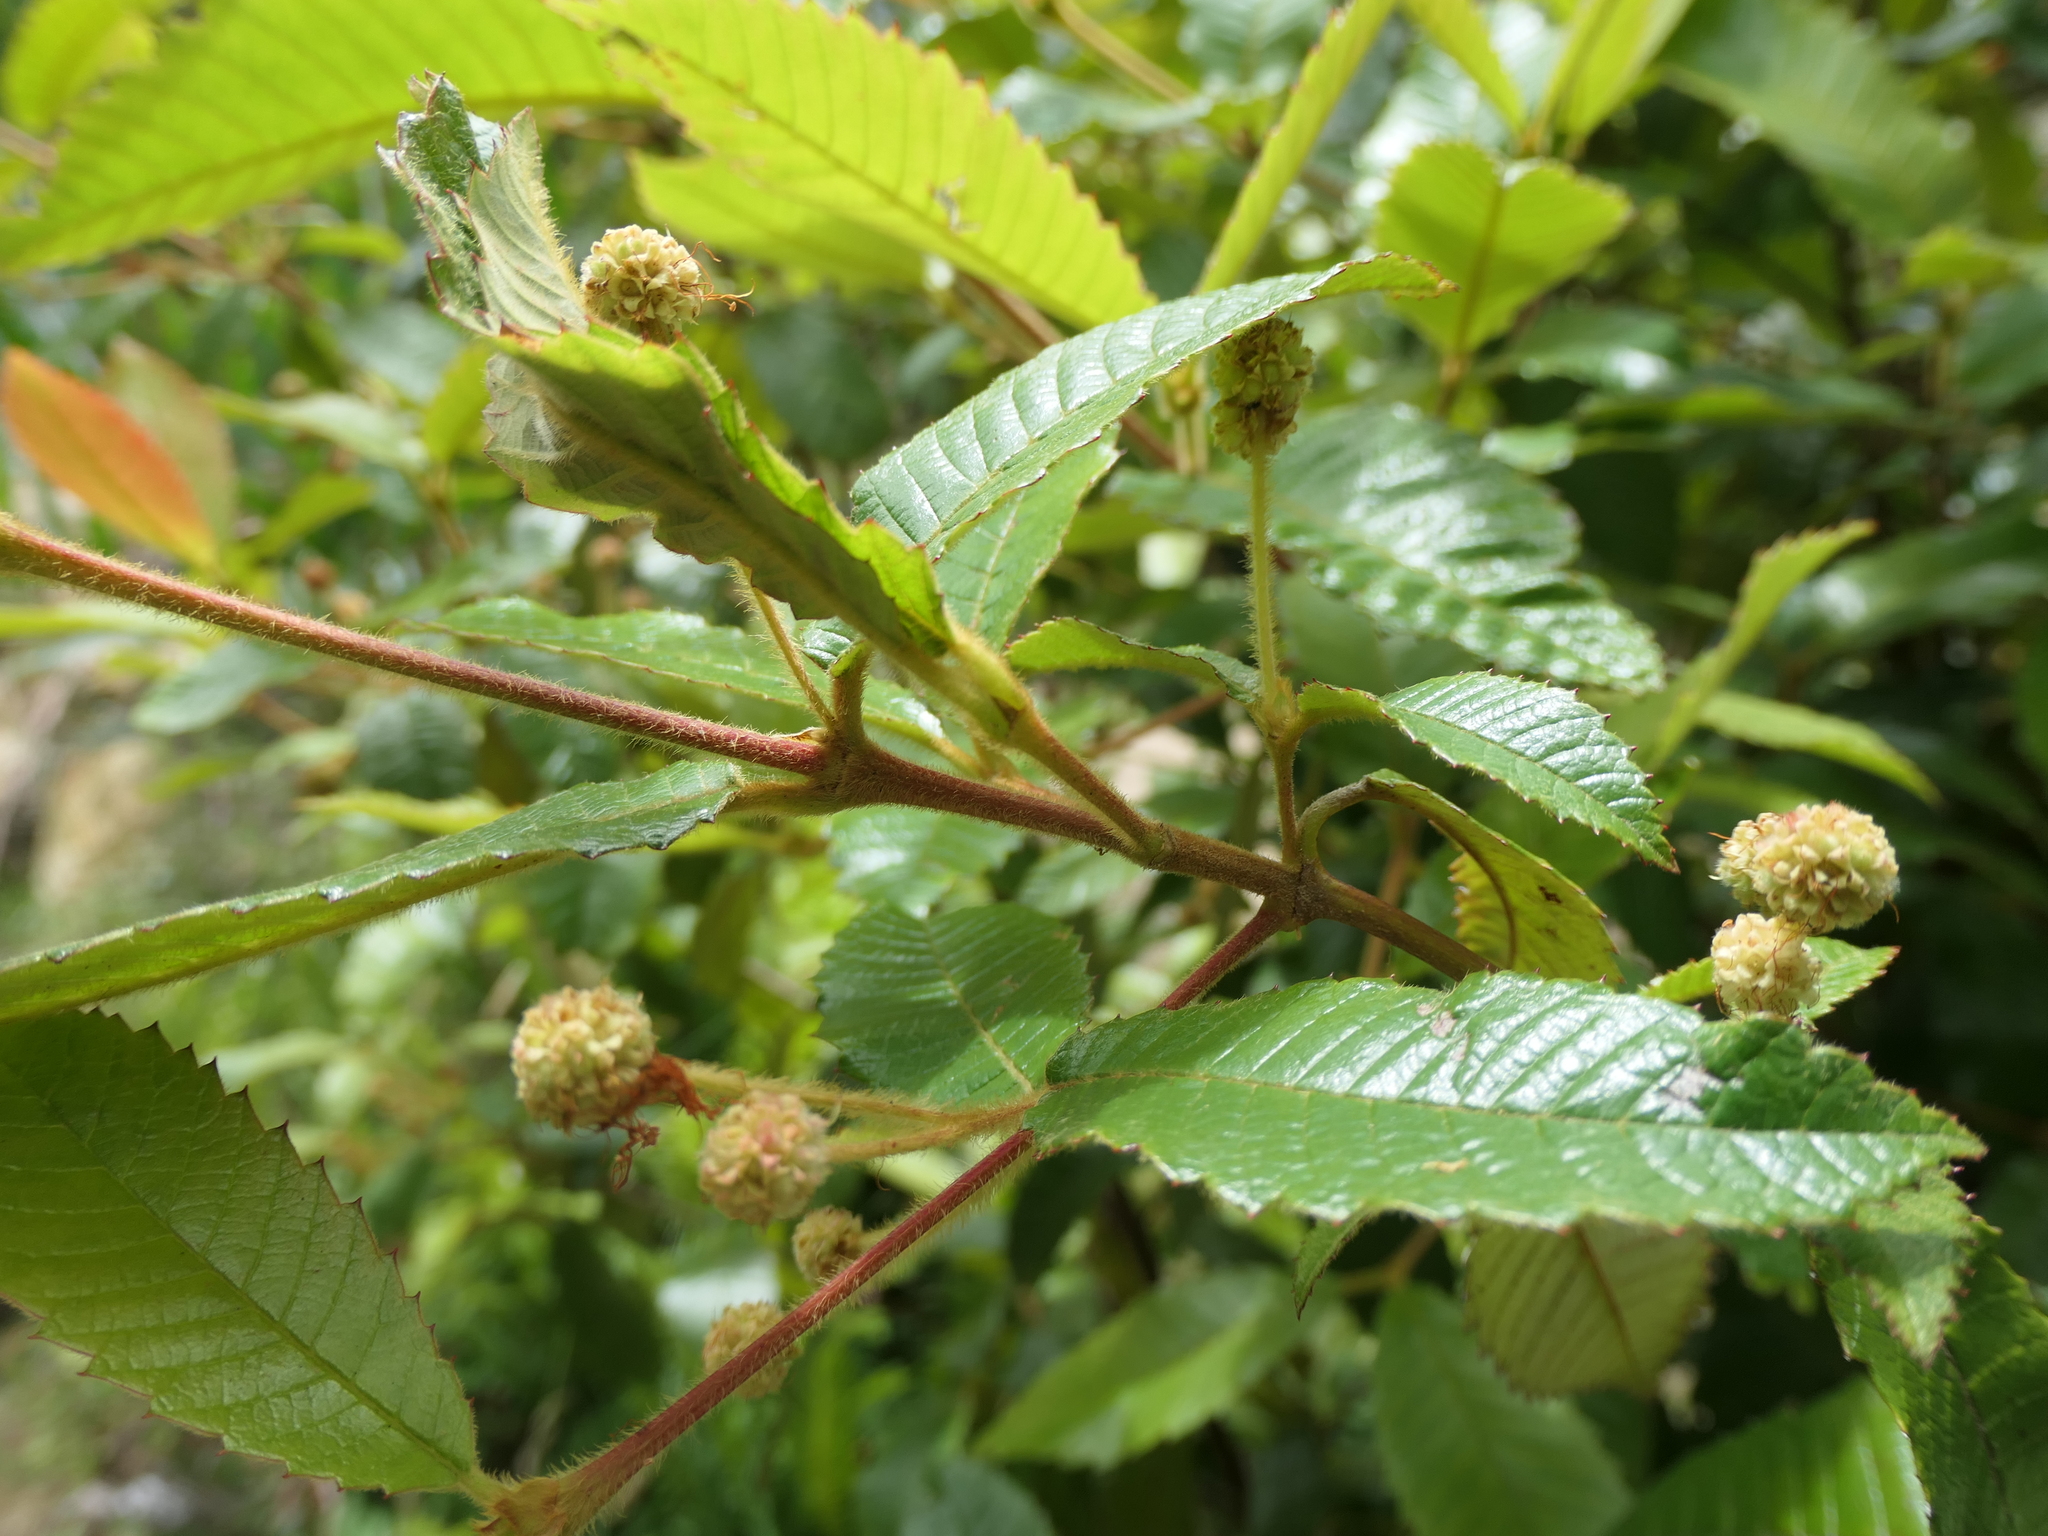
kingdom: Plantae
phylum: Tracheophyta
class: Magnoliopsida
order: Oxalidales
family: Cunoniaceae
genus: Callicoma
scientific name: Callicoma serratifolia
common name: Black wattle
